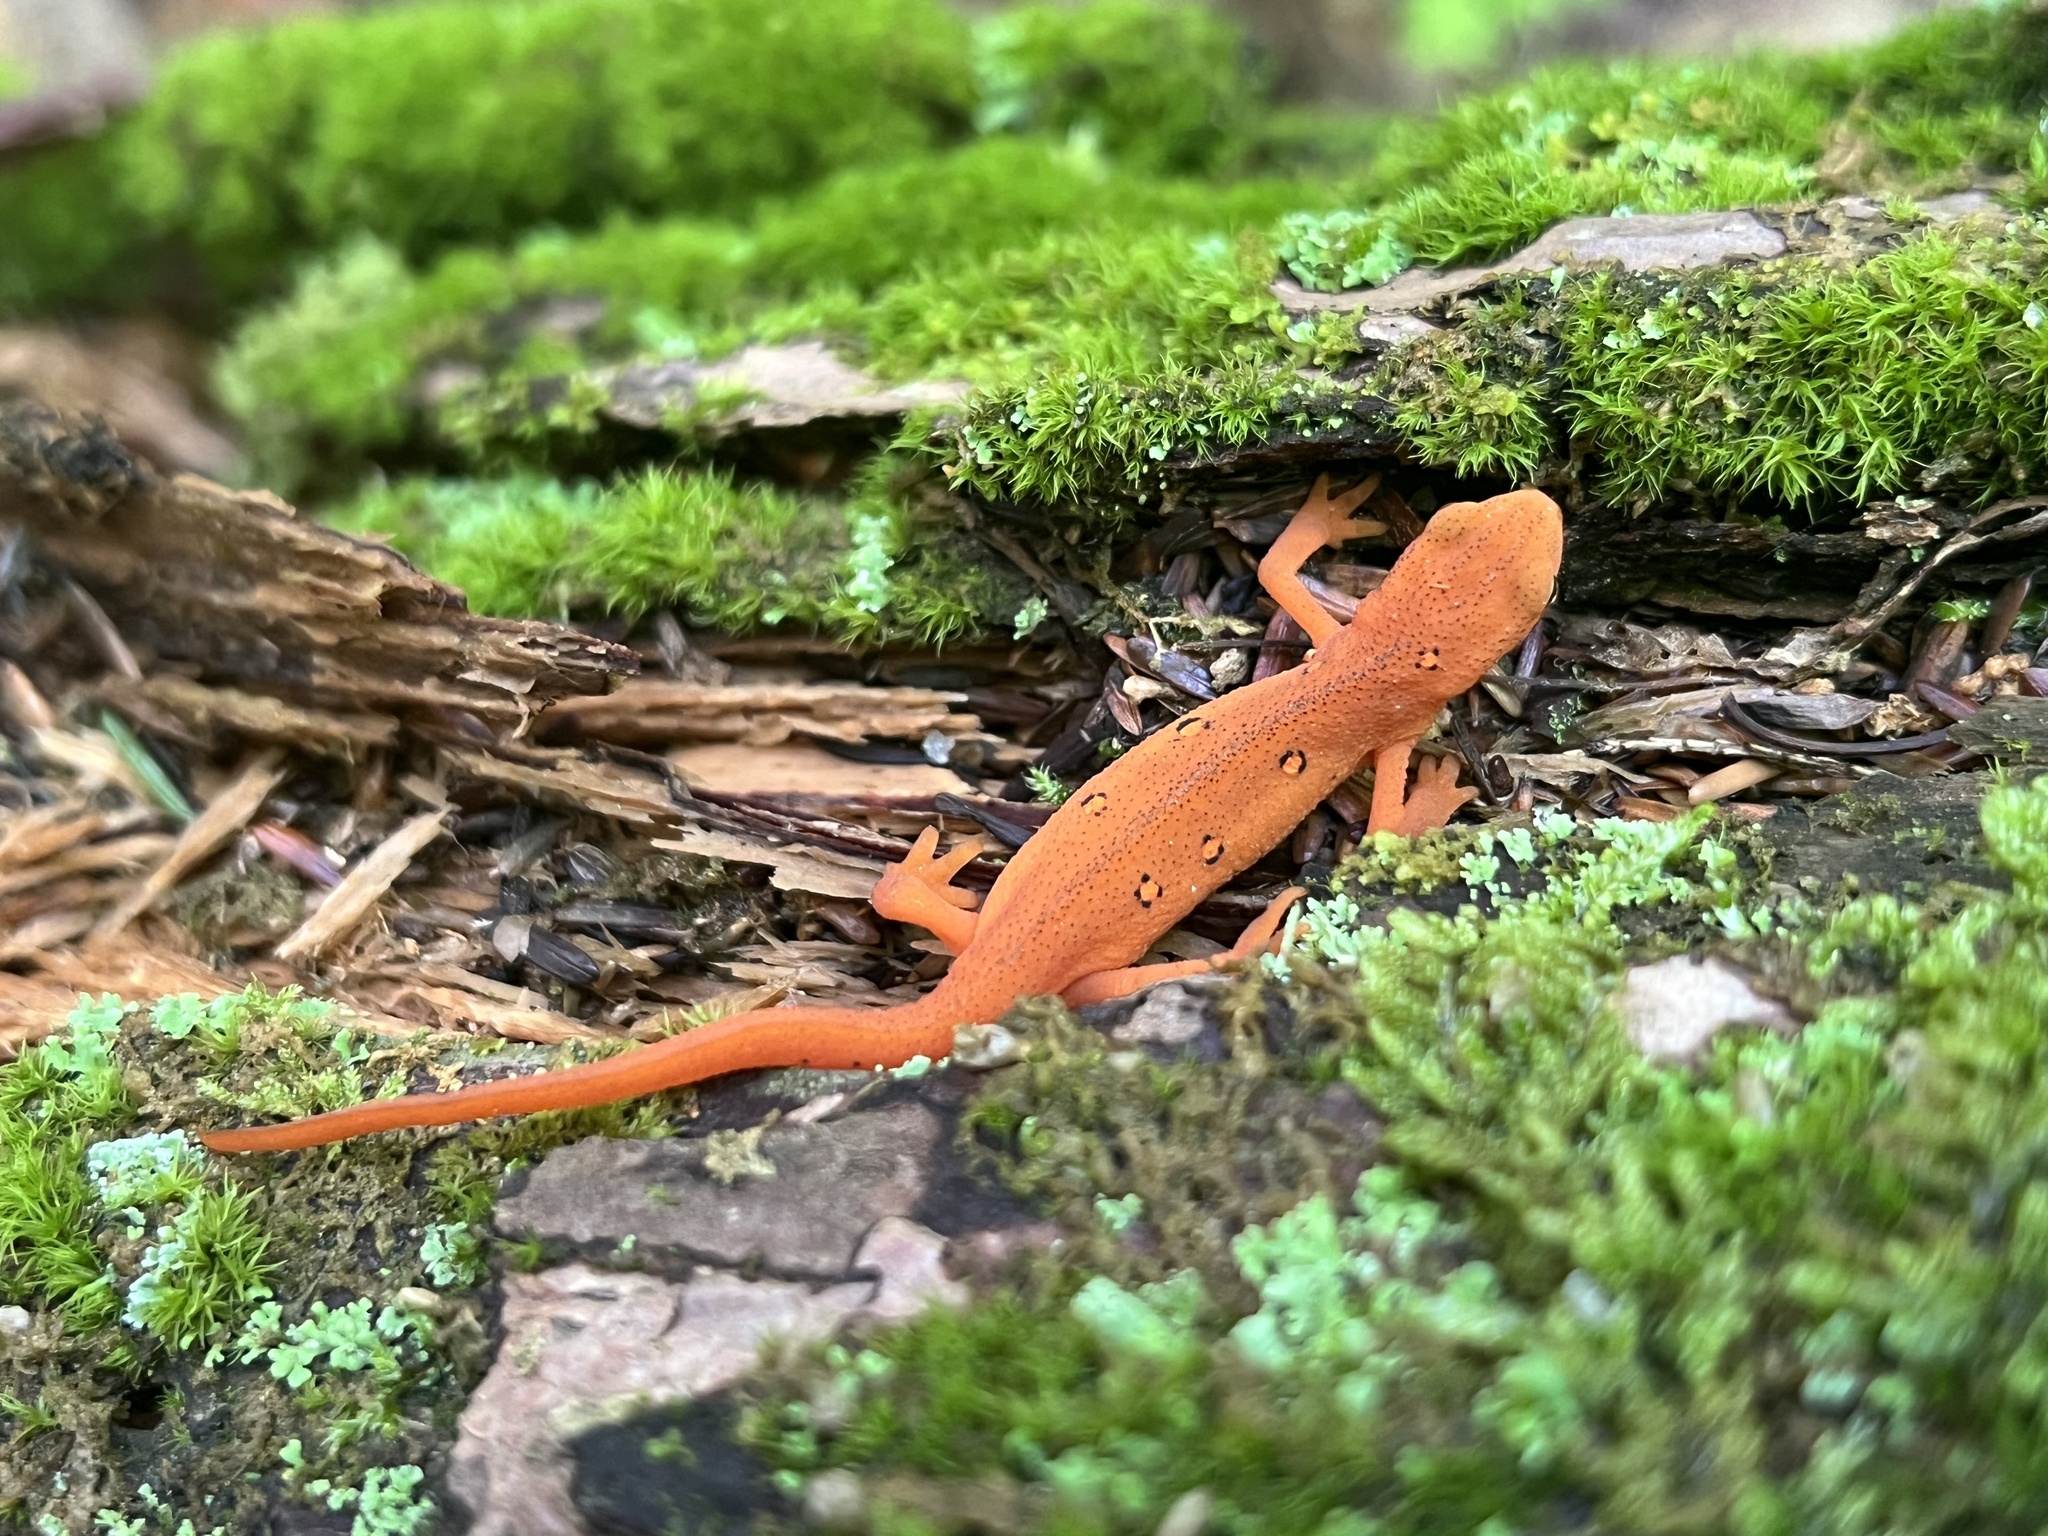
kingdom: Animalia
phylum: Chordata
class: Amphibia
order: Caudata
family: Salamandridae
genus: Notophthalmus
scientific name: Notophthalmus viridescens
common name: Eastern newt
